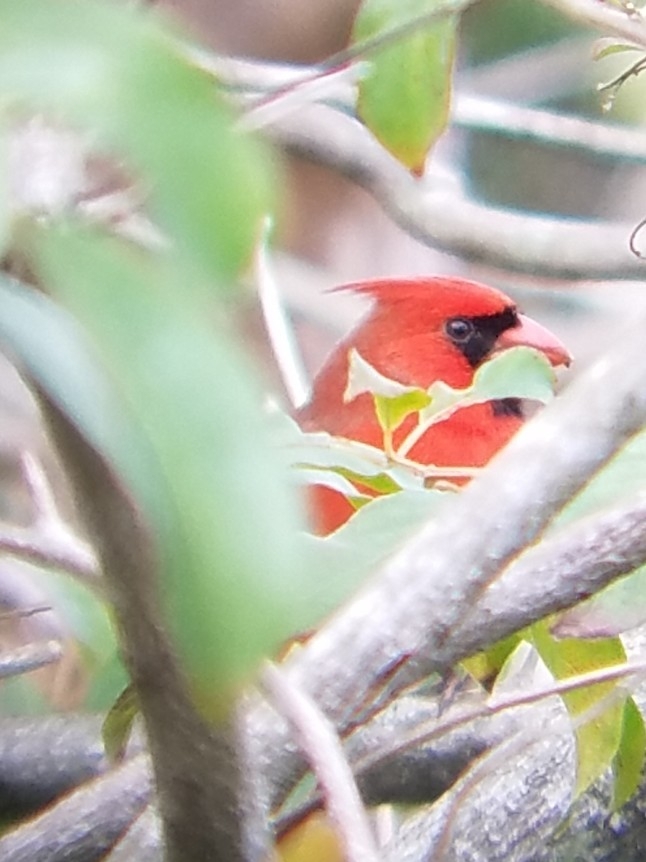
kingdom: Animalia
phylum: Chordata
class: Aves
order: Passeriformes
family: Cardinalidae
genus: Cardinalis
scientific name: Cardinalis cardinalis
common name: Northern cardinal
